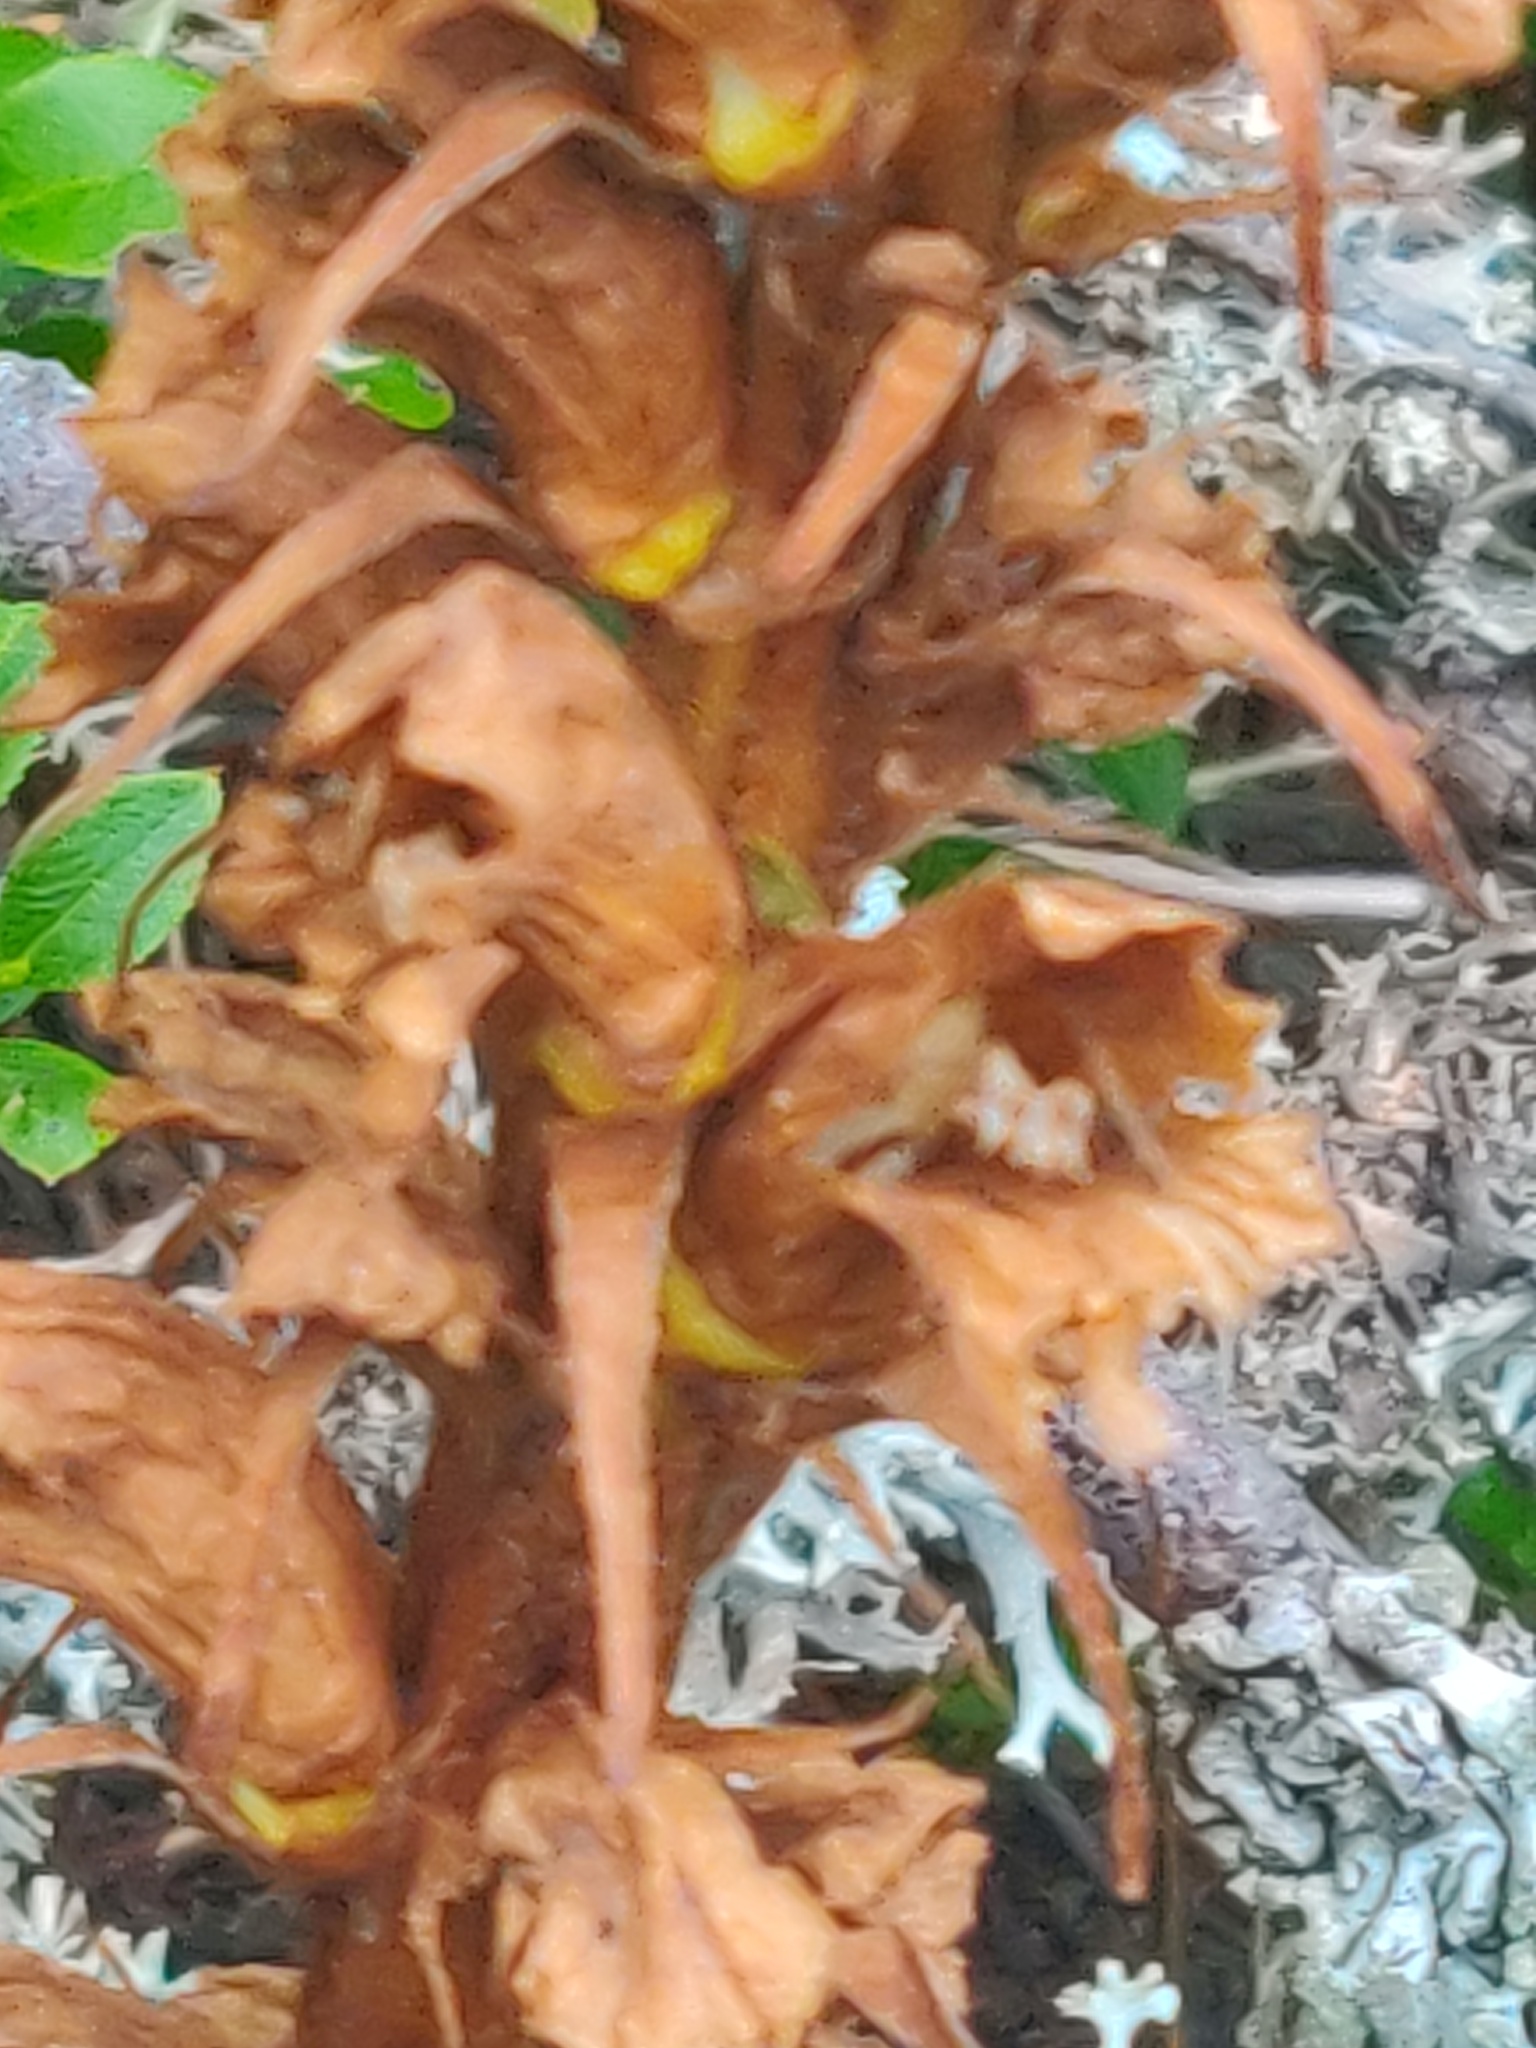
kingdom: Plantae
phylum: Tracheophyta
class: Magnoliopsida
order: Lamiales
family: Orobanchaceae
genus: Orobanche
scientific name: Orobanche rapum-genistae
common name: Greater broomrape
